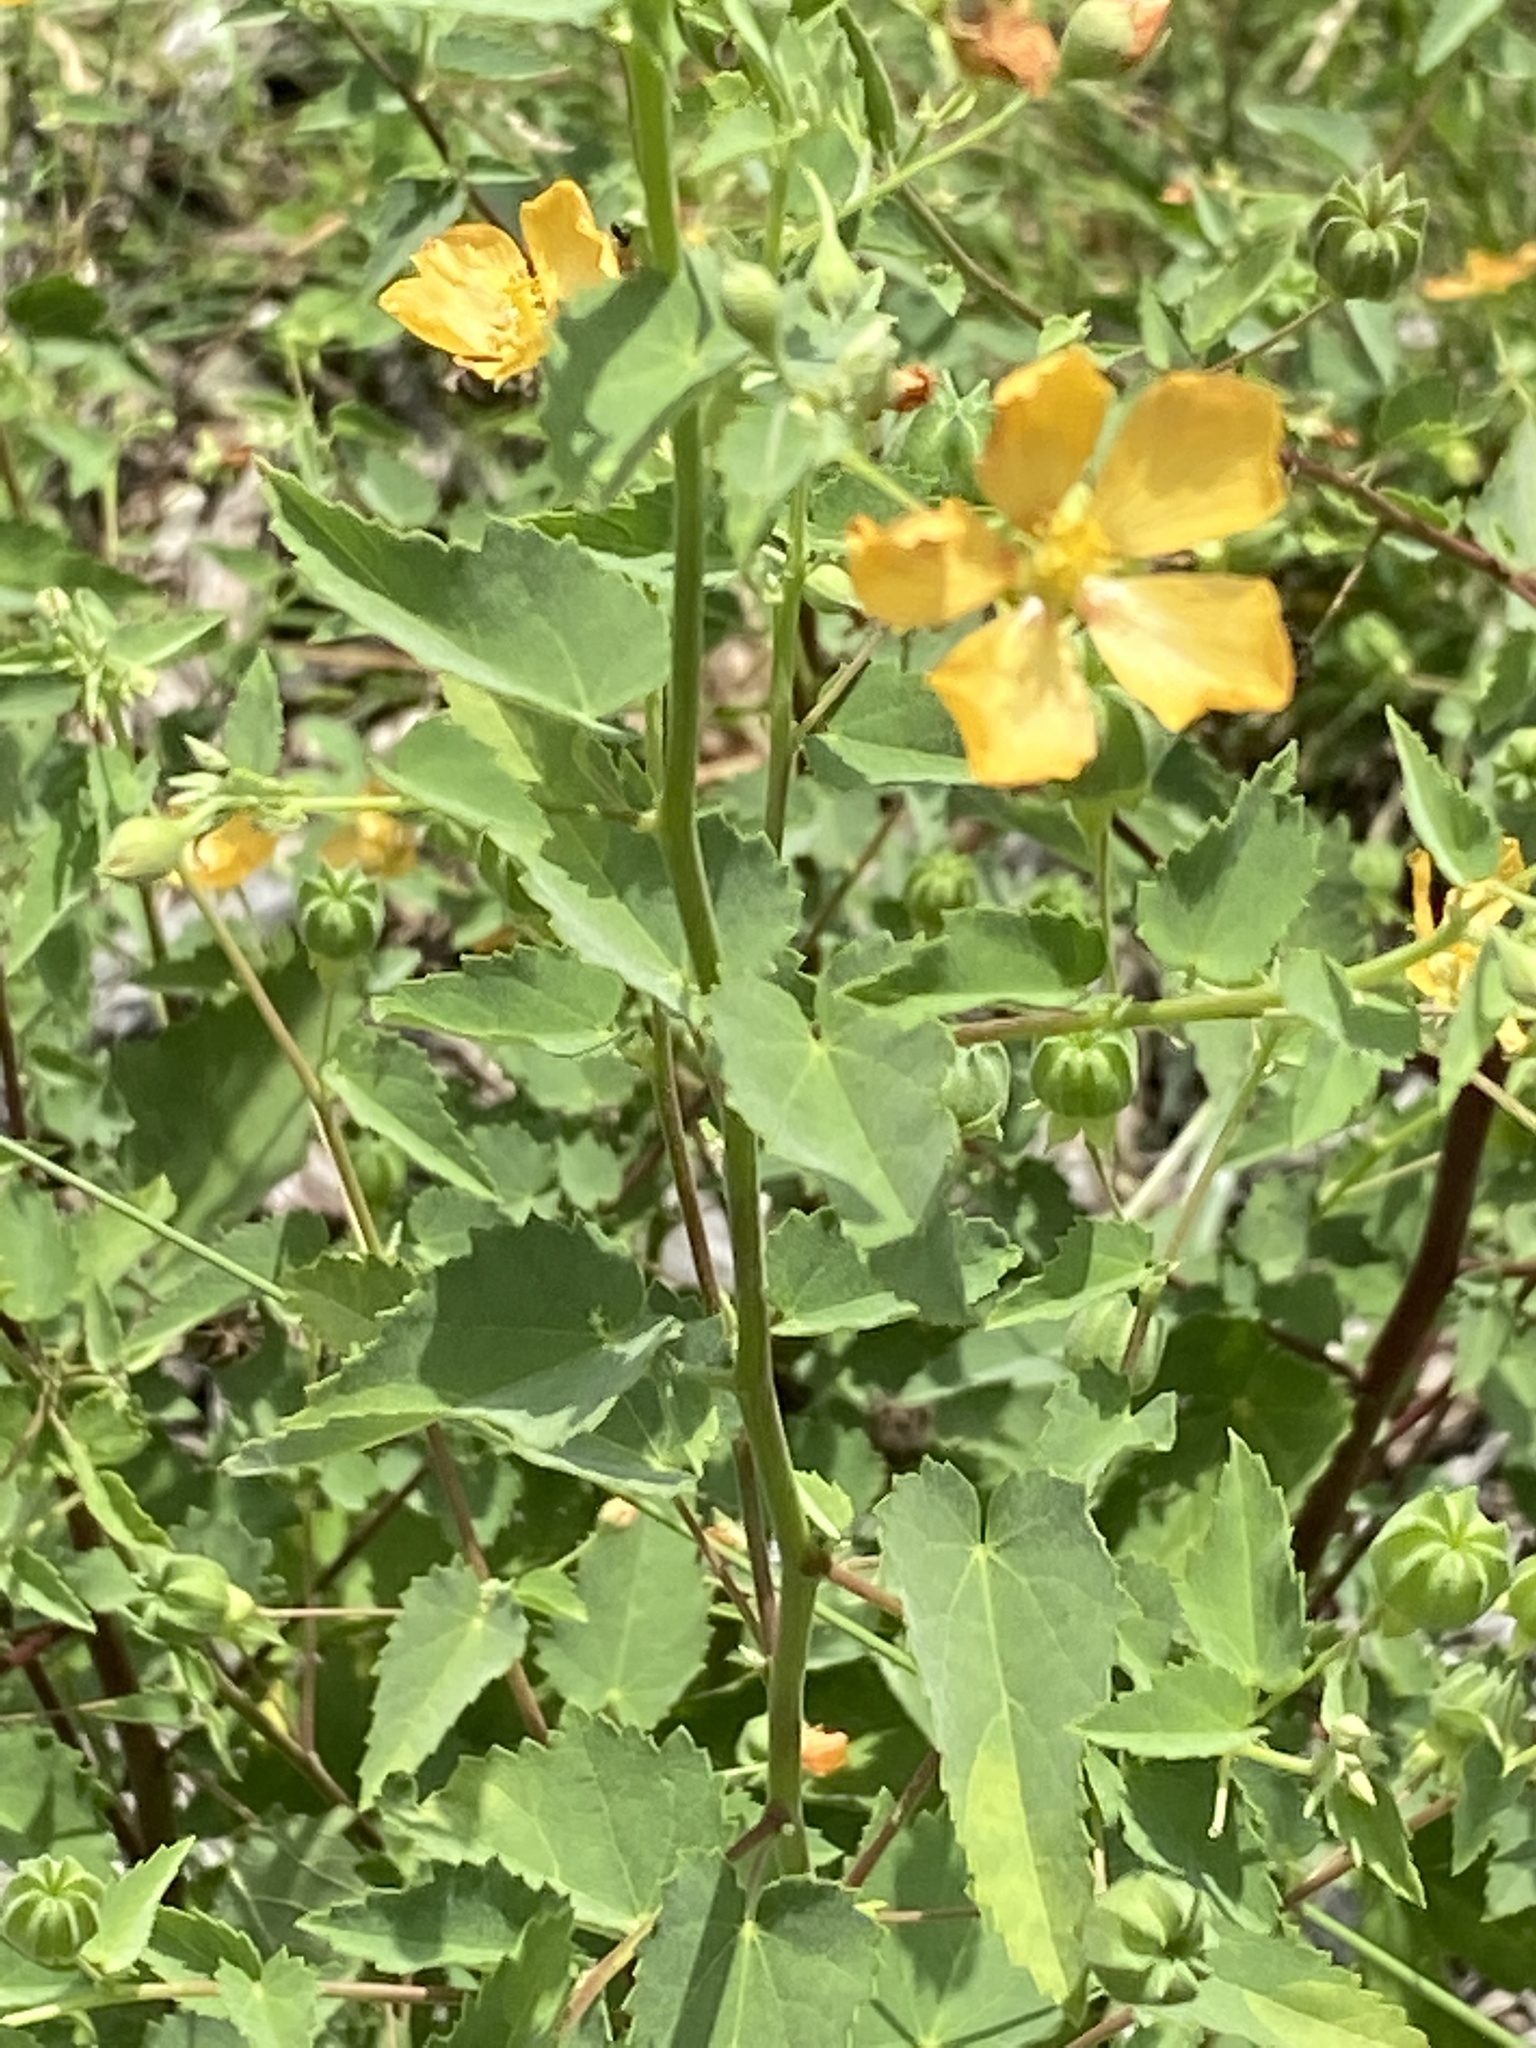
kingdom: Plantae
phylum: Tracheophyta
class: Magnoliopsida
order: Malvales
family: Malvaceae
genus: Abutilon
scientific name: Abutilon fruticosum
